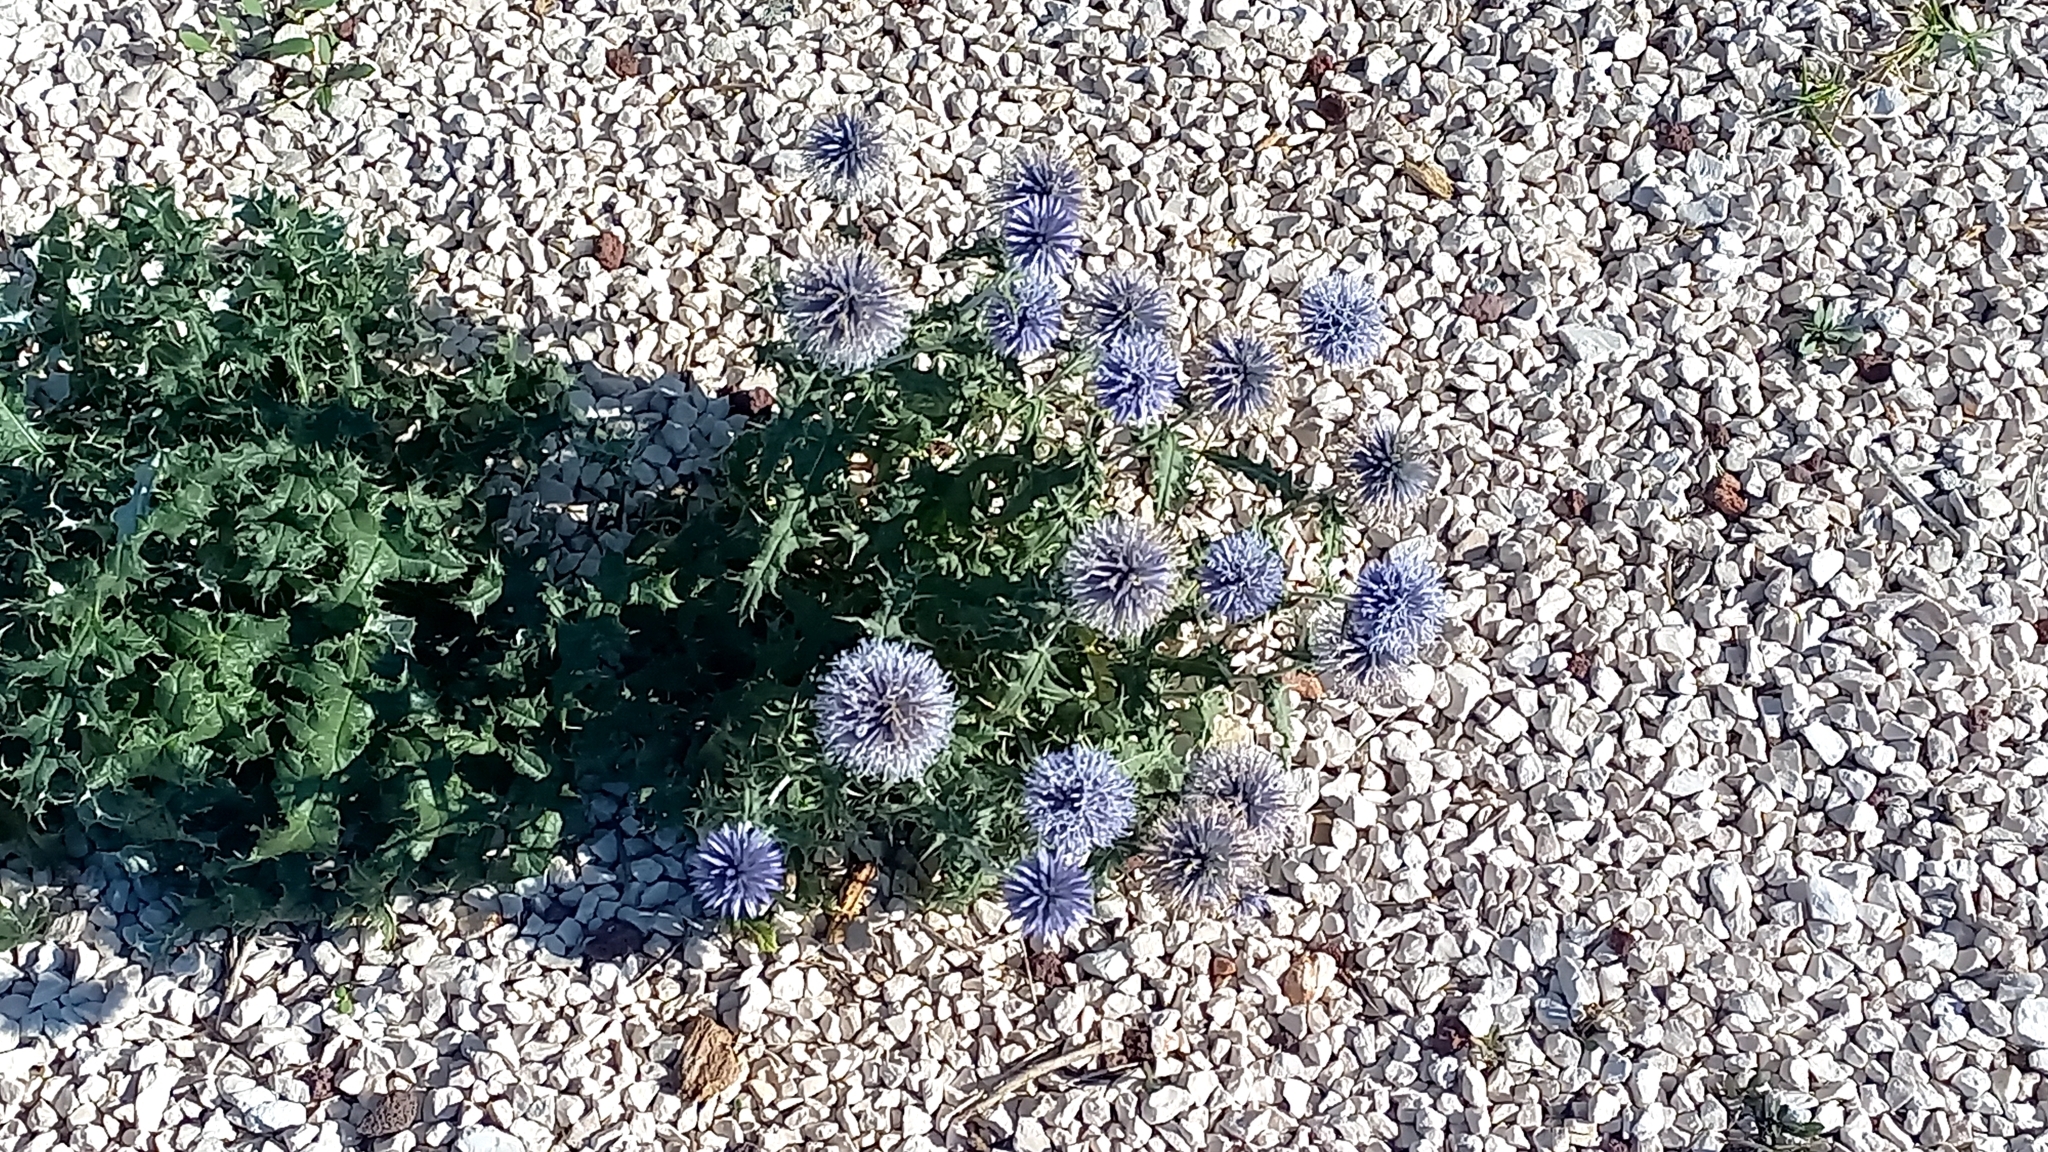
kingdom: Plantae
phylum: Tracheophyta
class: Magnoliopsida
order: Asterales
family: Asteraceae
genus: Echinops
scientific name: Echinops ritro
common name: Globe thistle
